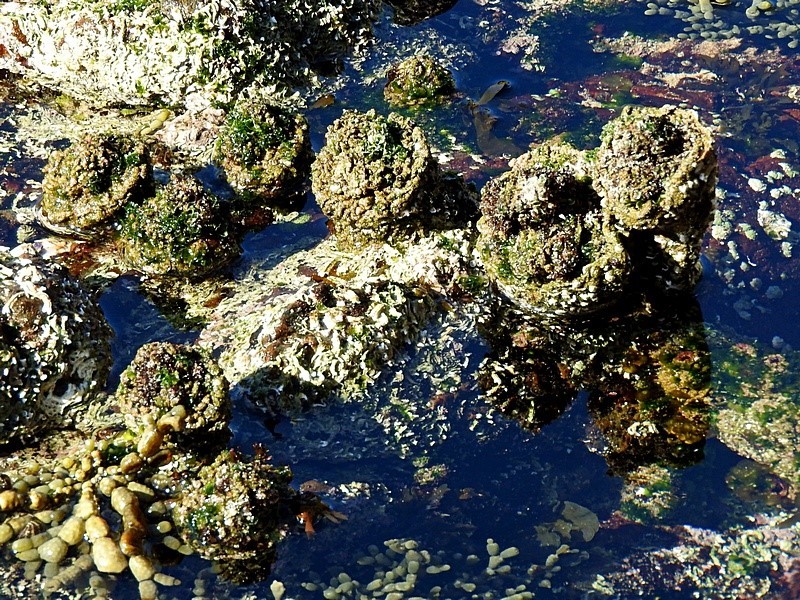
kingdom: Animalia
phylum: Chordata
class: Ascidiacea
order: Stolidobranchia
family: Pyuridae
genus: Pyura
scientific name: Pyura praeputialis
